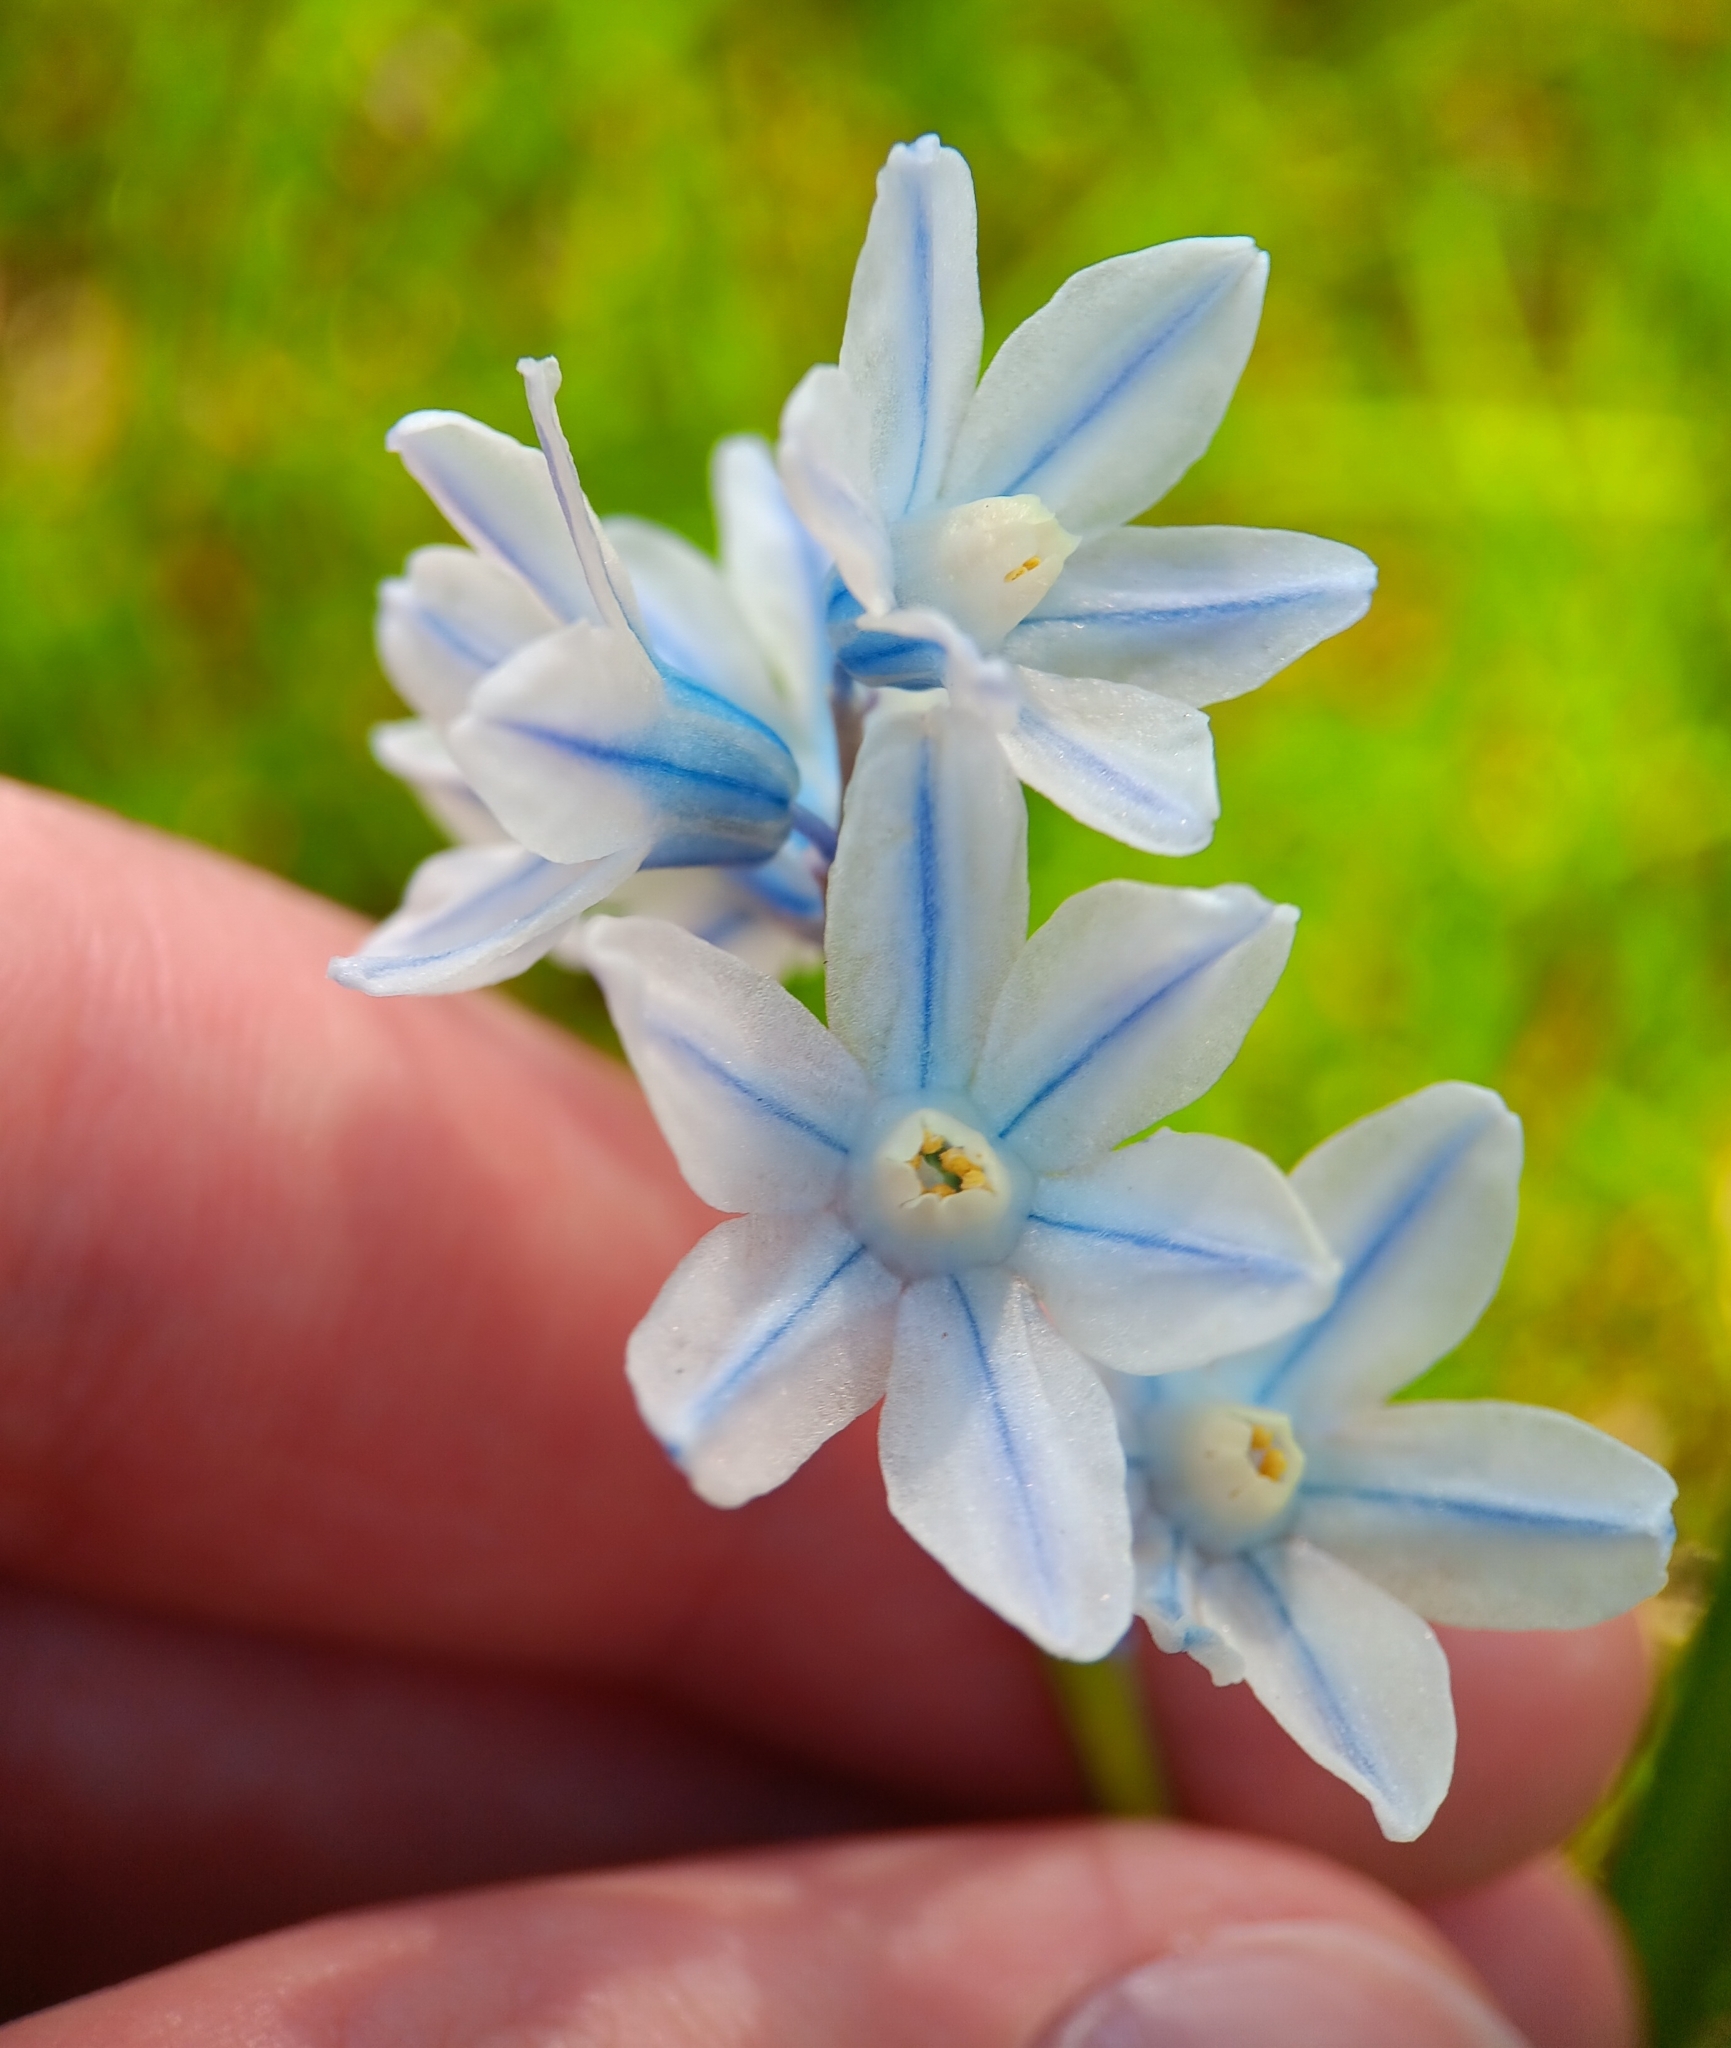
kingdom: Plantae
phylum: Tracheophyta
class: Liliopsida
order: Asparagales
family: Asparagaceae
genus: Puschkinia
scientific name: Puschkinia scilloides
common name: Striped squill
